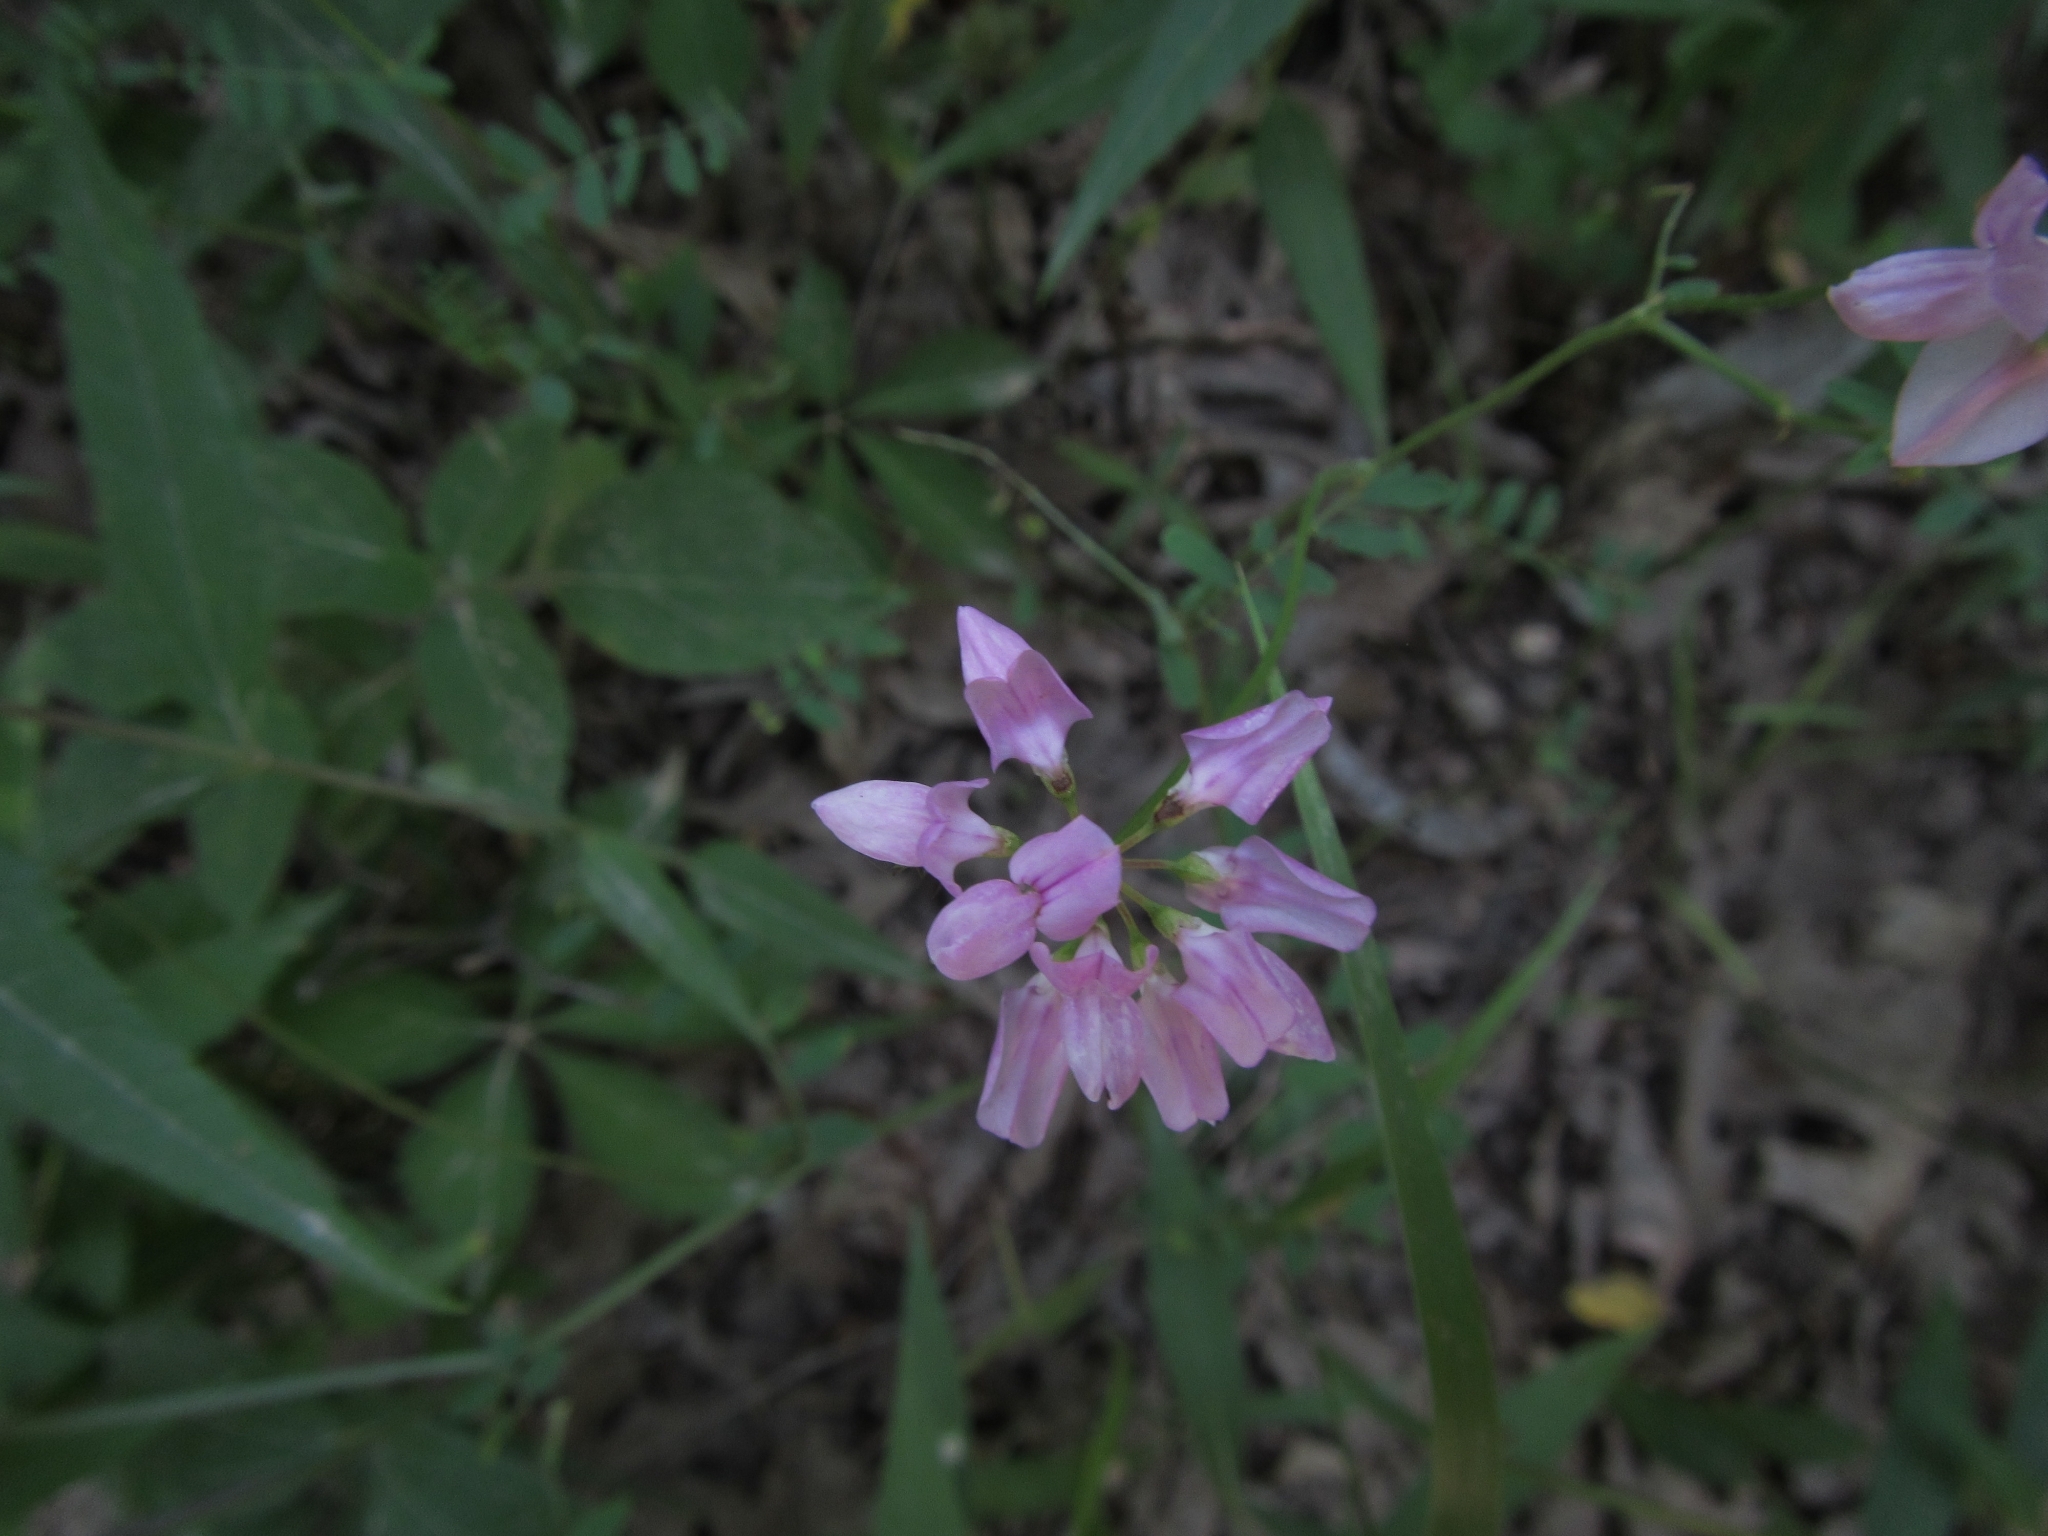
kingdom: Plantae
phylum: Tracheophyta
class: Magnoliopsida
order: Fabales
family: Fabaceae
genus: Coronilla
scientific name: Coronilla varia
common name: Crownvetch
